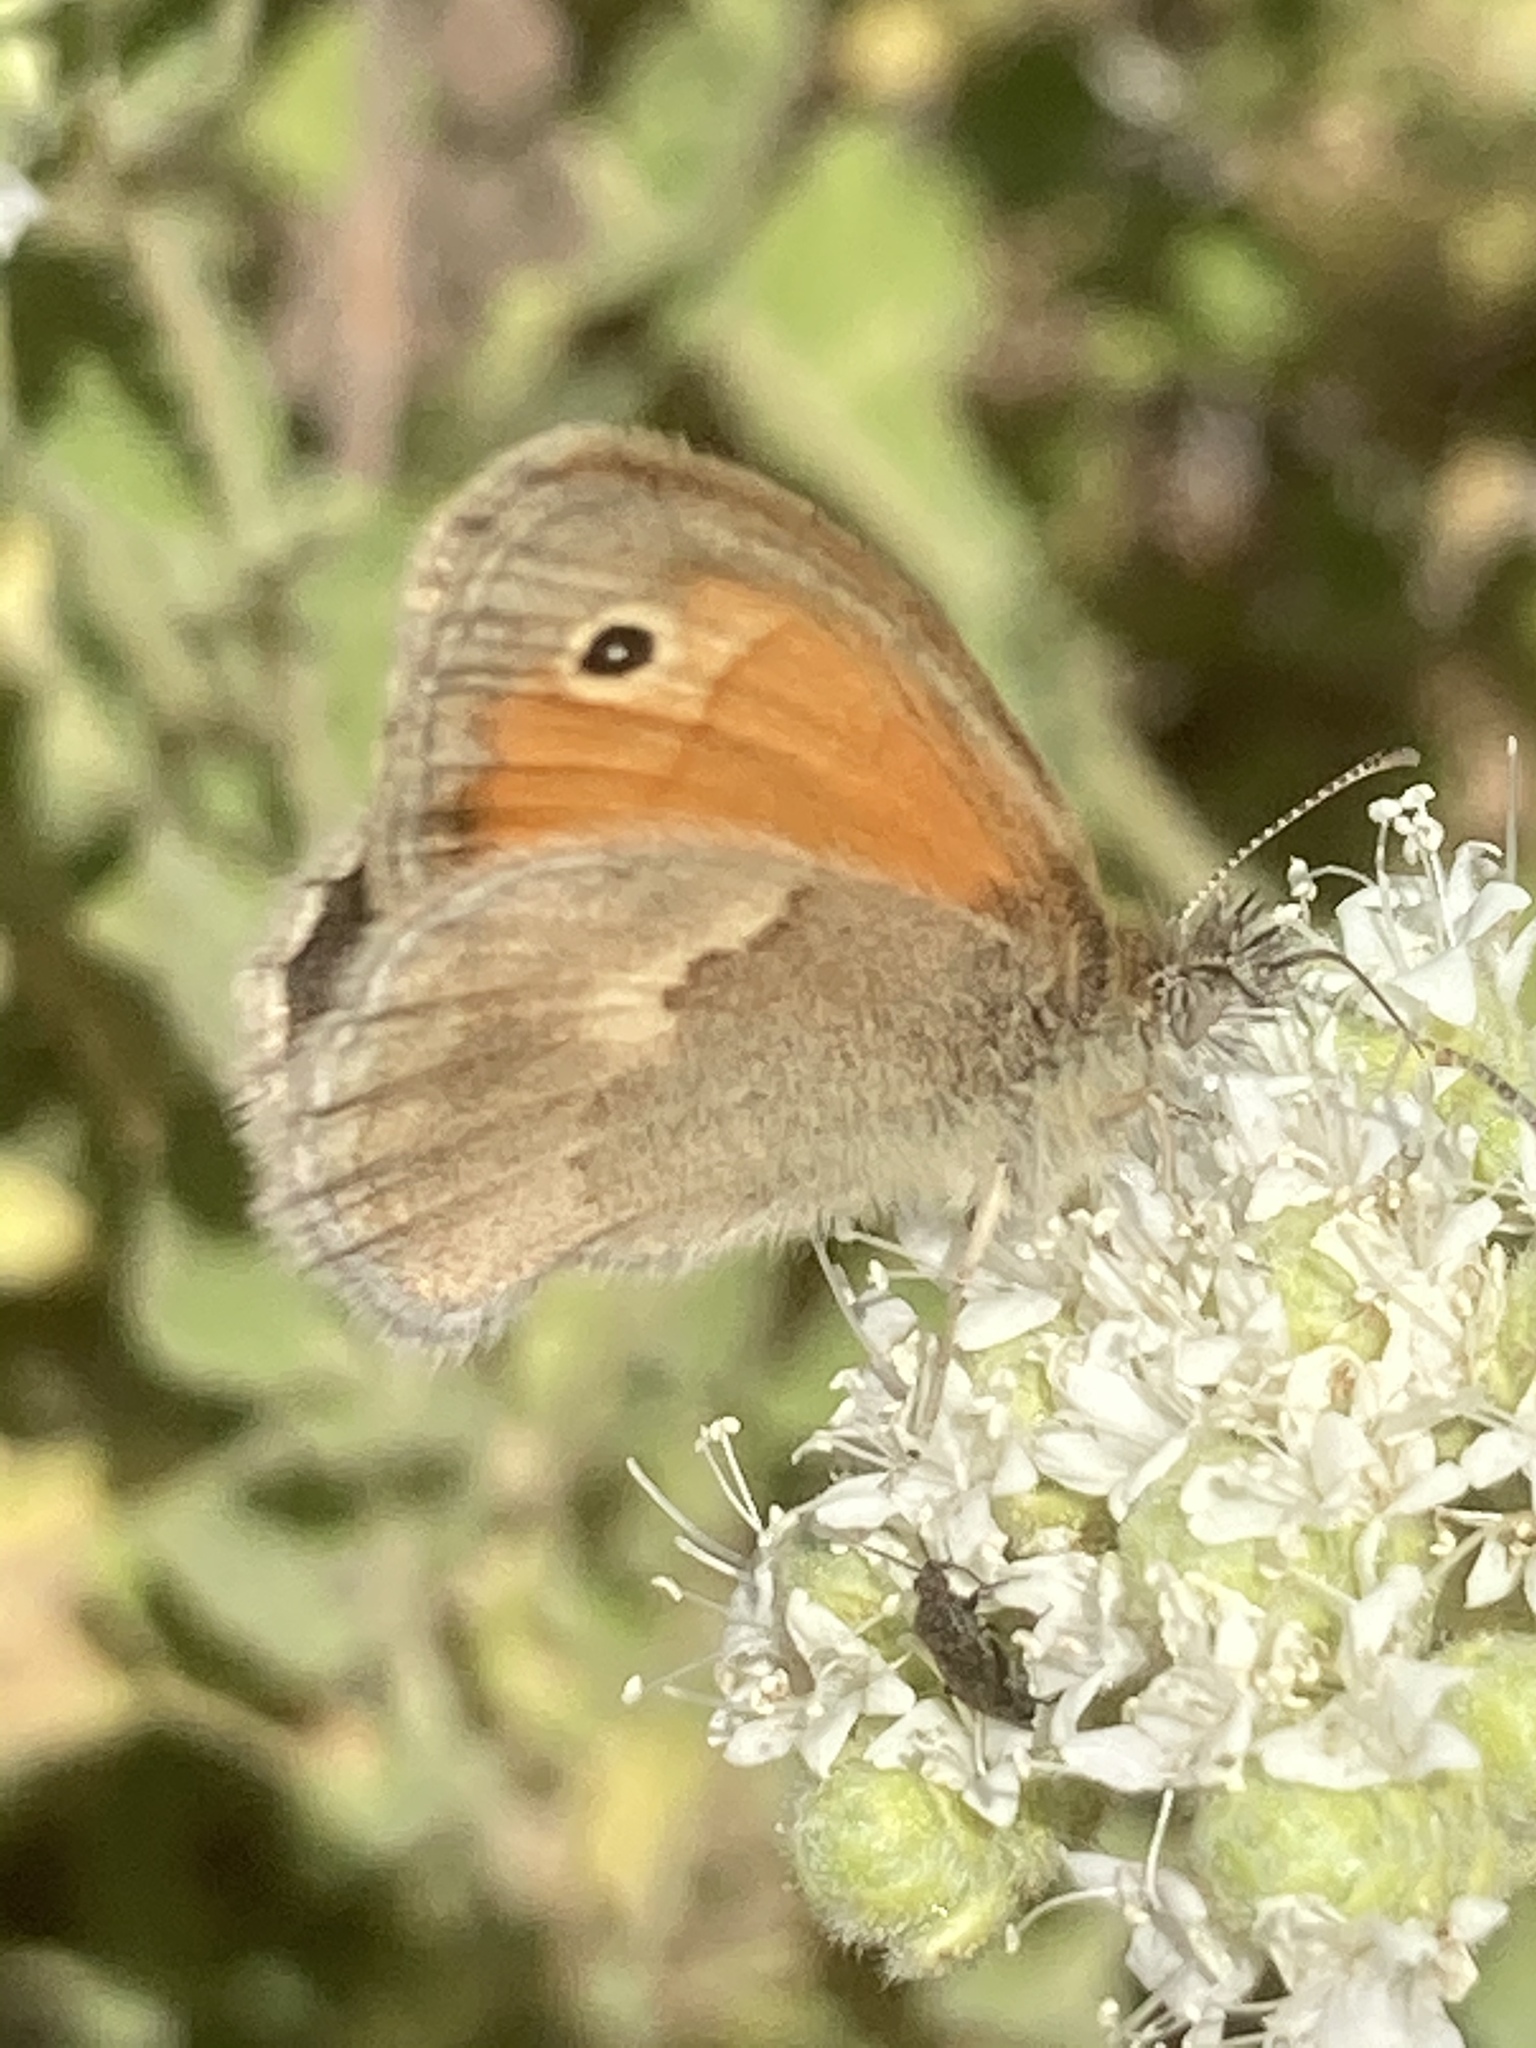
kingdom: Animalia
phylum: Arthropoda
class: Insecta
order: Lepidoptera
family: Nymphalidae
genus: Coenonympha
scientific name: Coenonympha pamphilus
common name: Small heath
